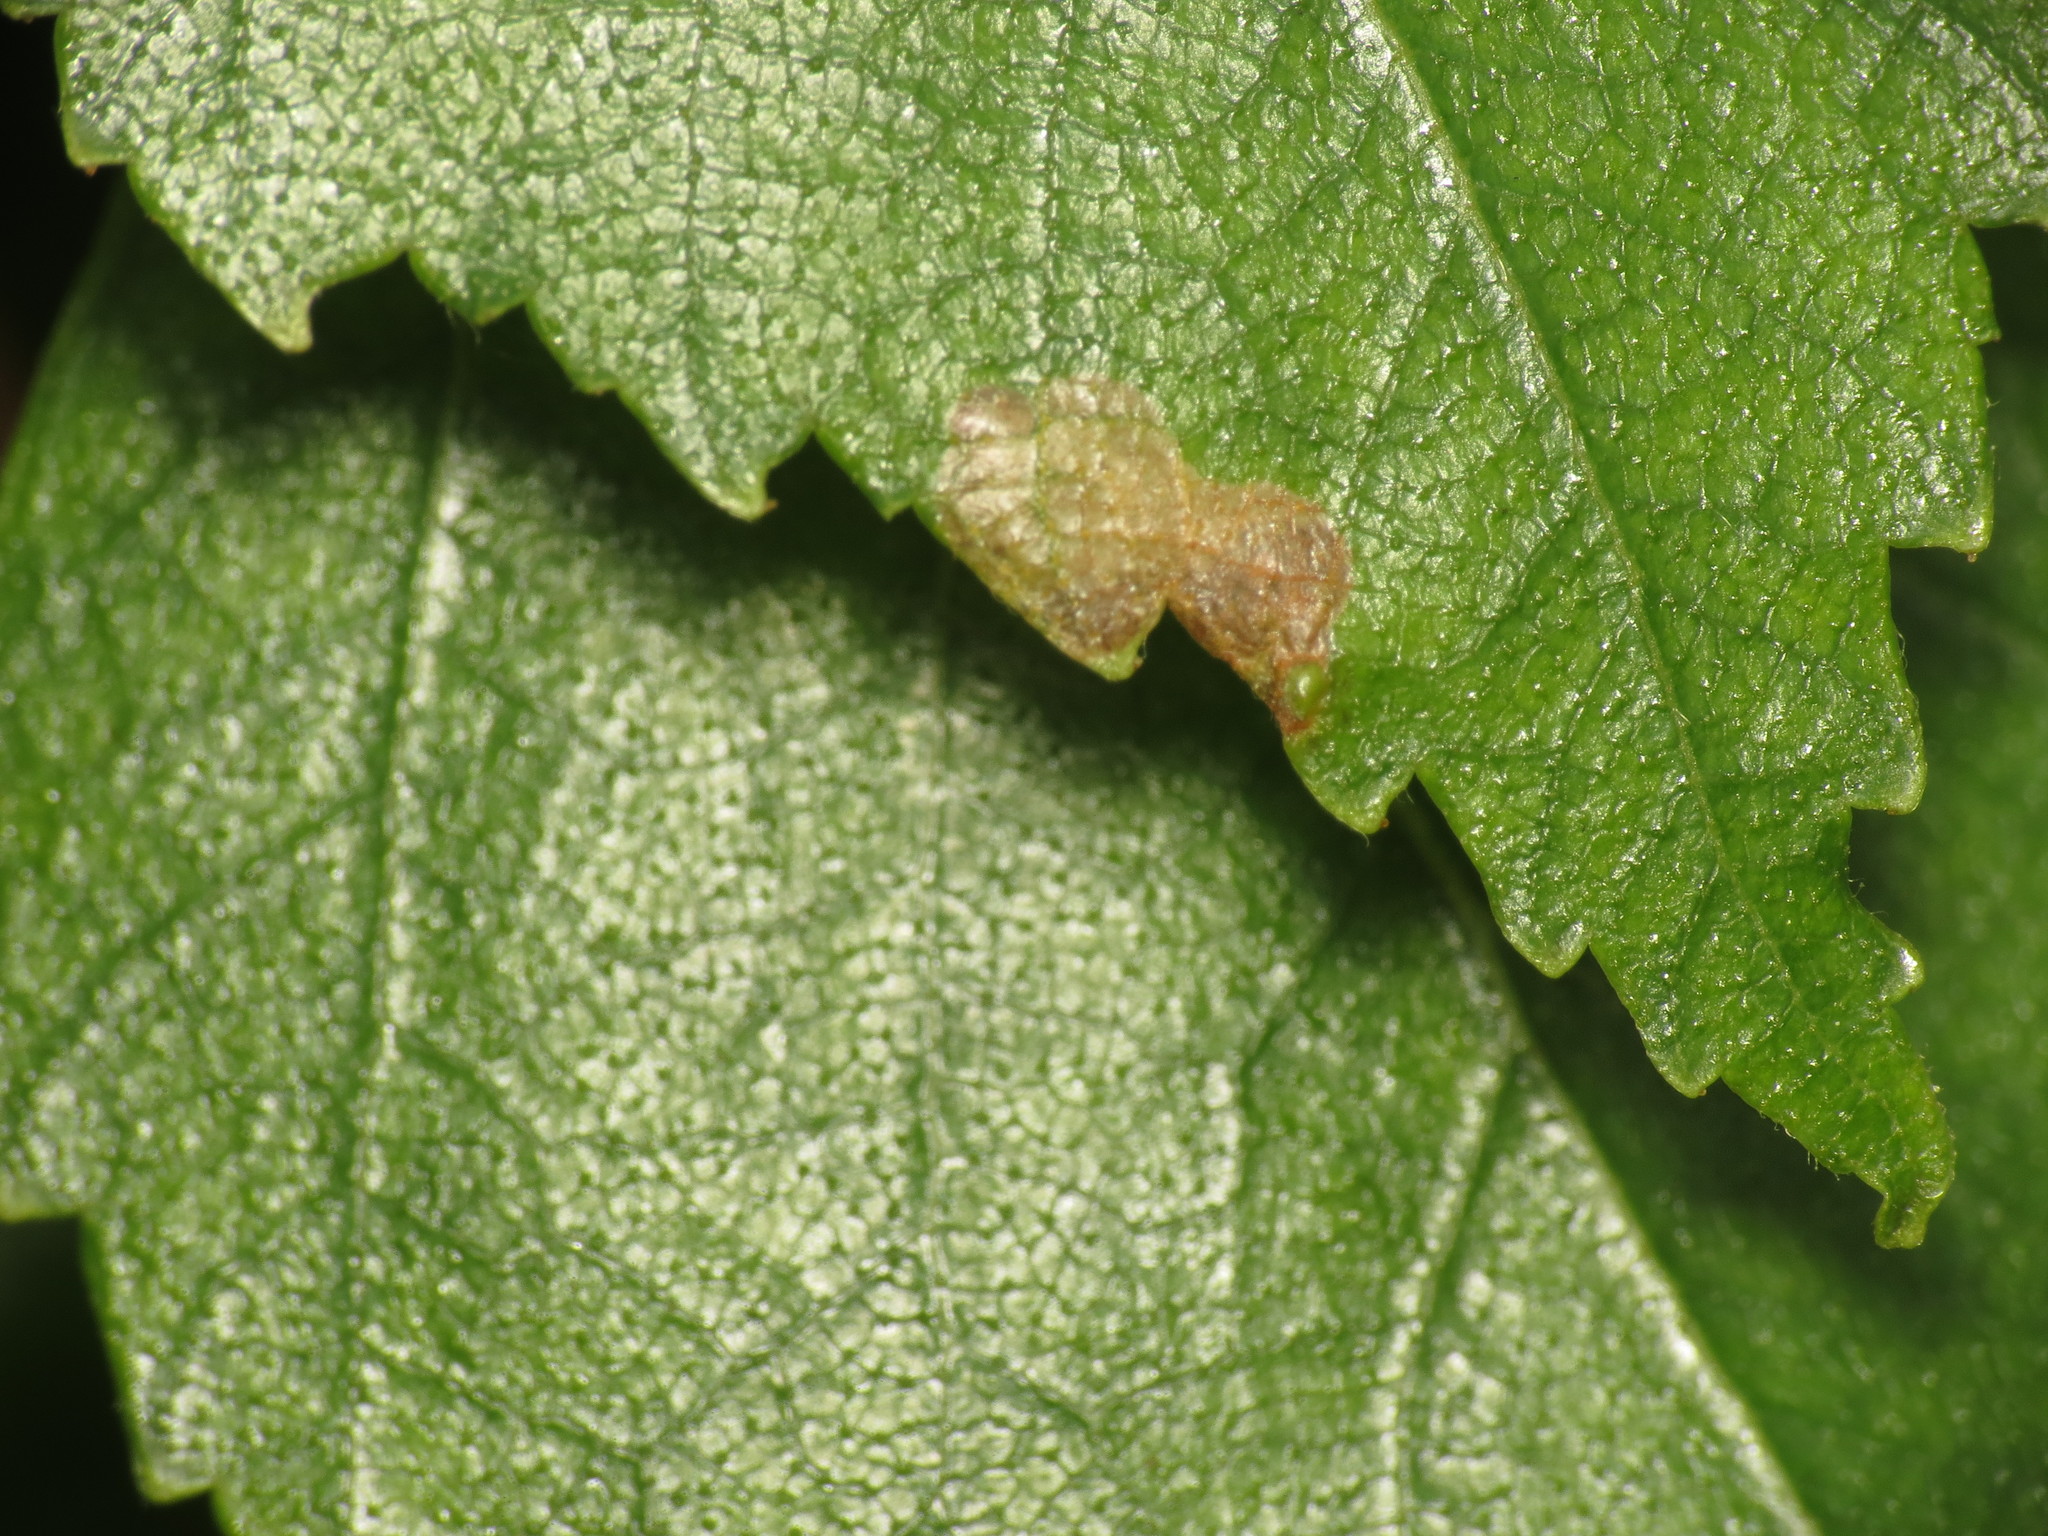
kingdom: Animalia
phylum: Arthropoda
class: Insecta
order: Lepidoptera
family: Eriocraniidae
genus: Eriocrania
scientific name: Eriocrania semipurpurella
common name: Early purple
